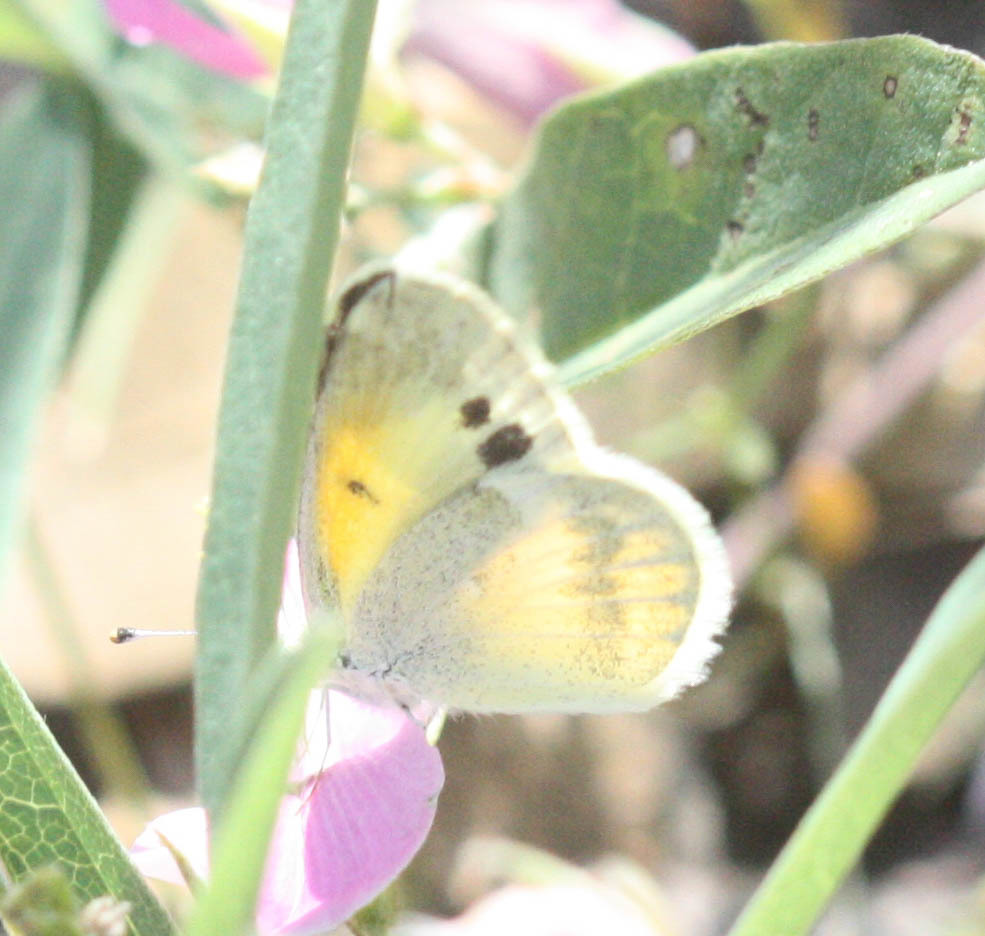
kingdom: Animalia
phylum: Arthropoda
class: Insecta
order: Lepidoptera
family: Pieridae
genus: Nathalis
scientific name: Nathalis iole
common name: Dainty sulphur
